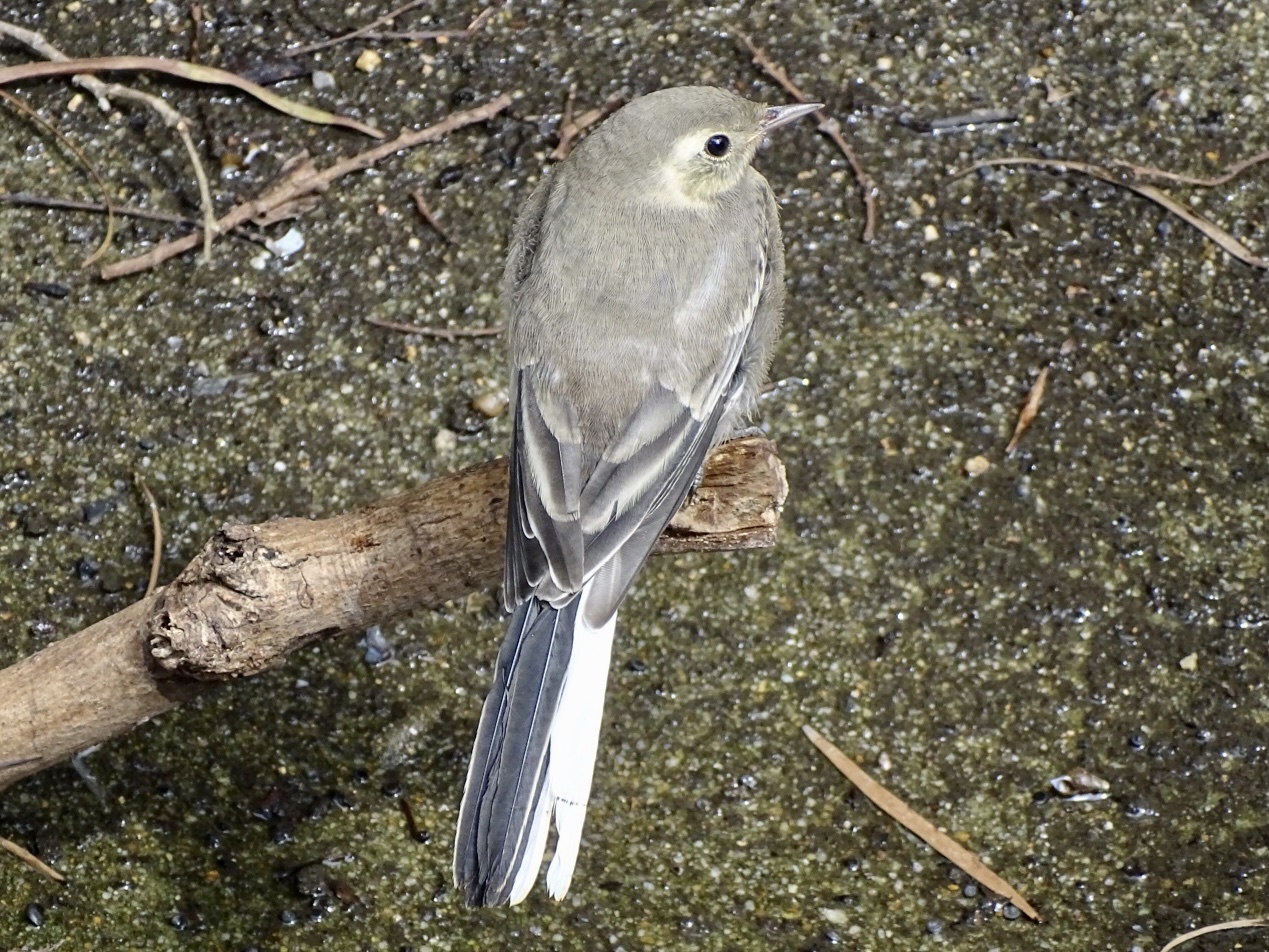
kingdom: Animalia
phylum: Chordata
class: Aves
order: Passeriformes
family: Motacillidae
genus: Motacilla
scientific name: Motacilla alba
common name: White wagtail
